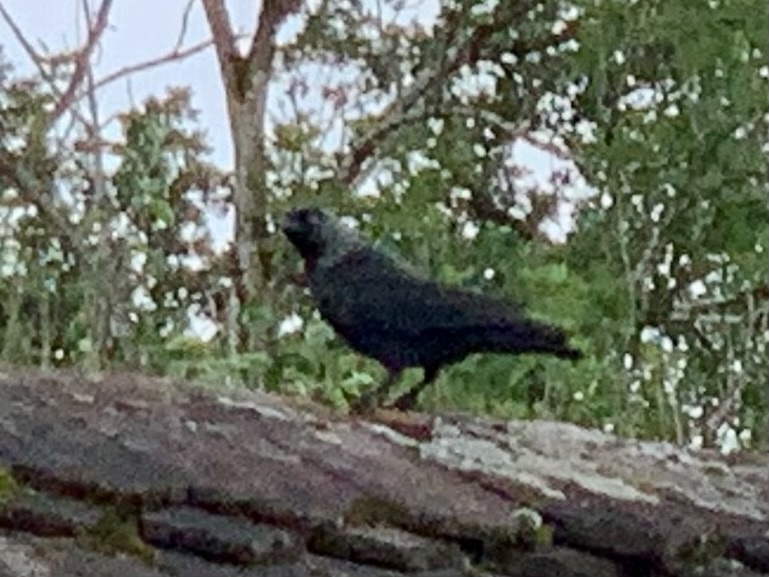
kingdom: Animalia
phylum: Chordata
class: Aves
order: Passeriformes
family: Corvidae
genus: Coloeus
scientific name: Coloeus monedula
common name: Western jackdaw
